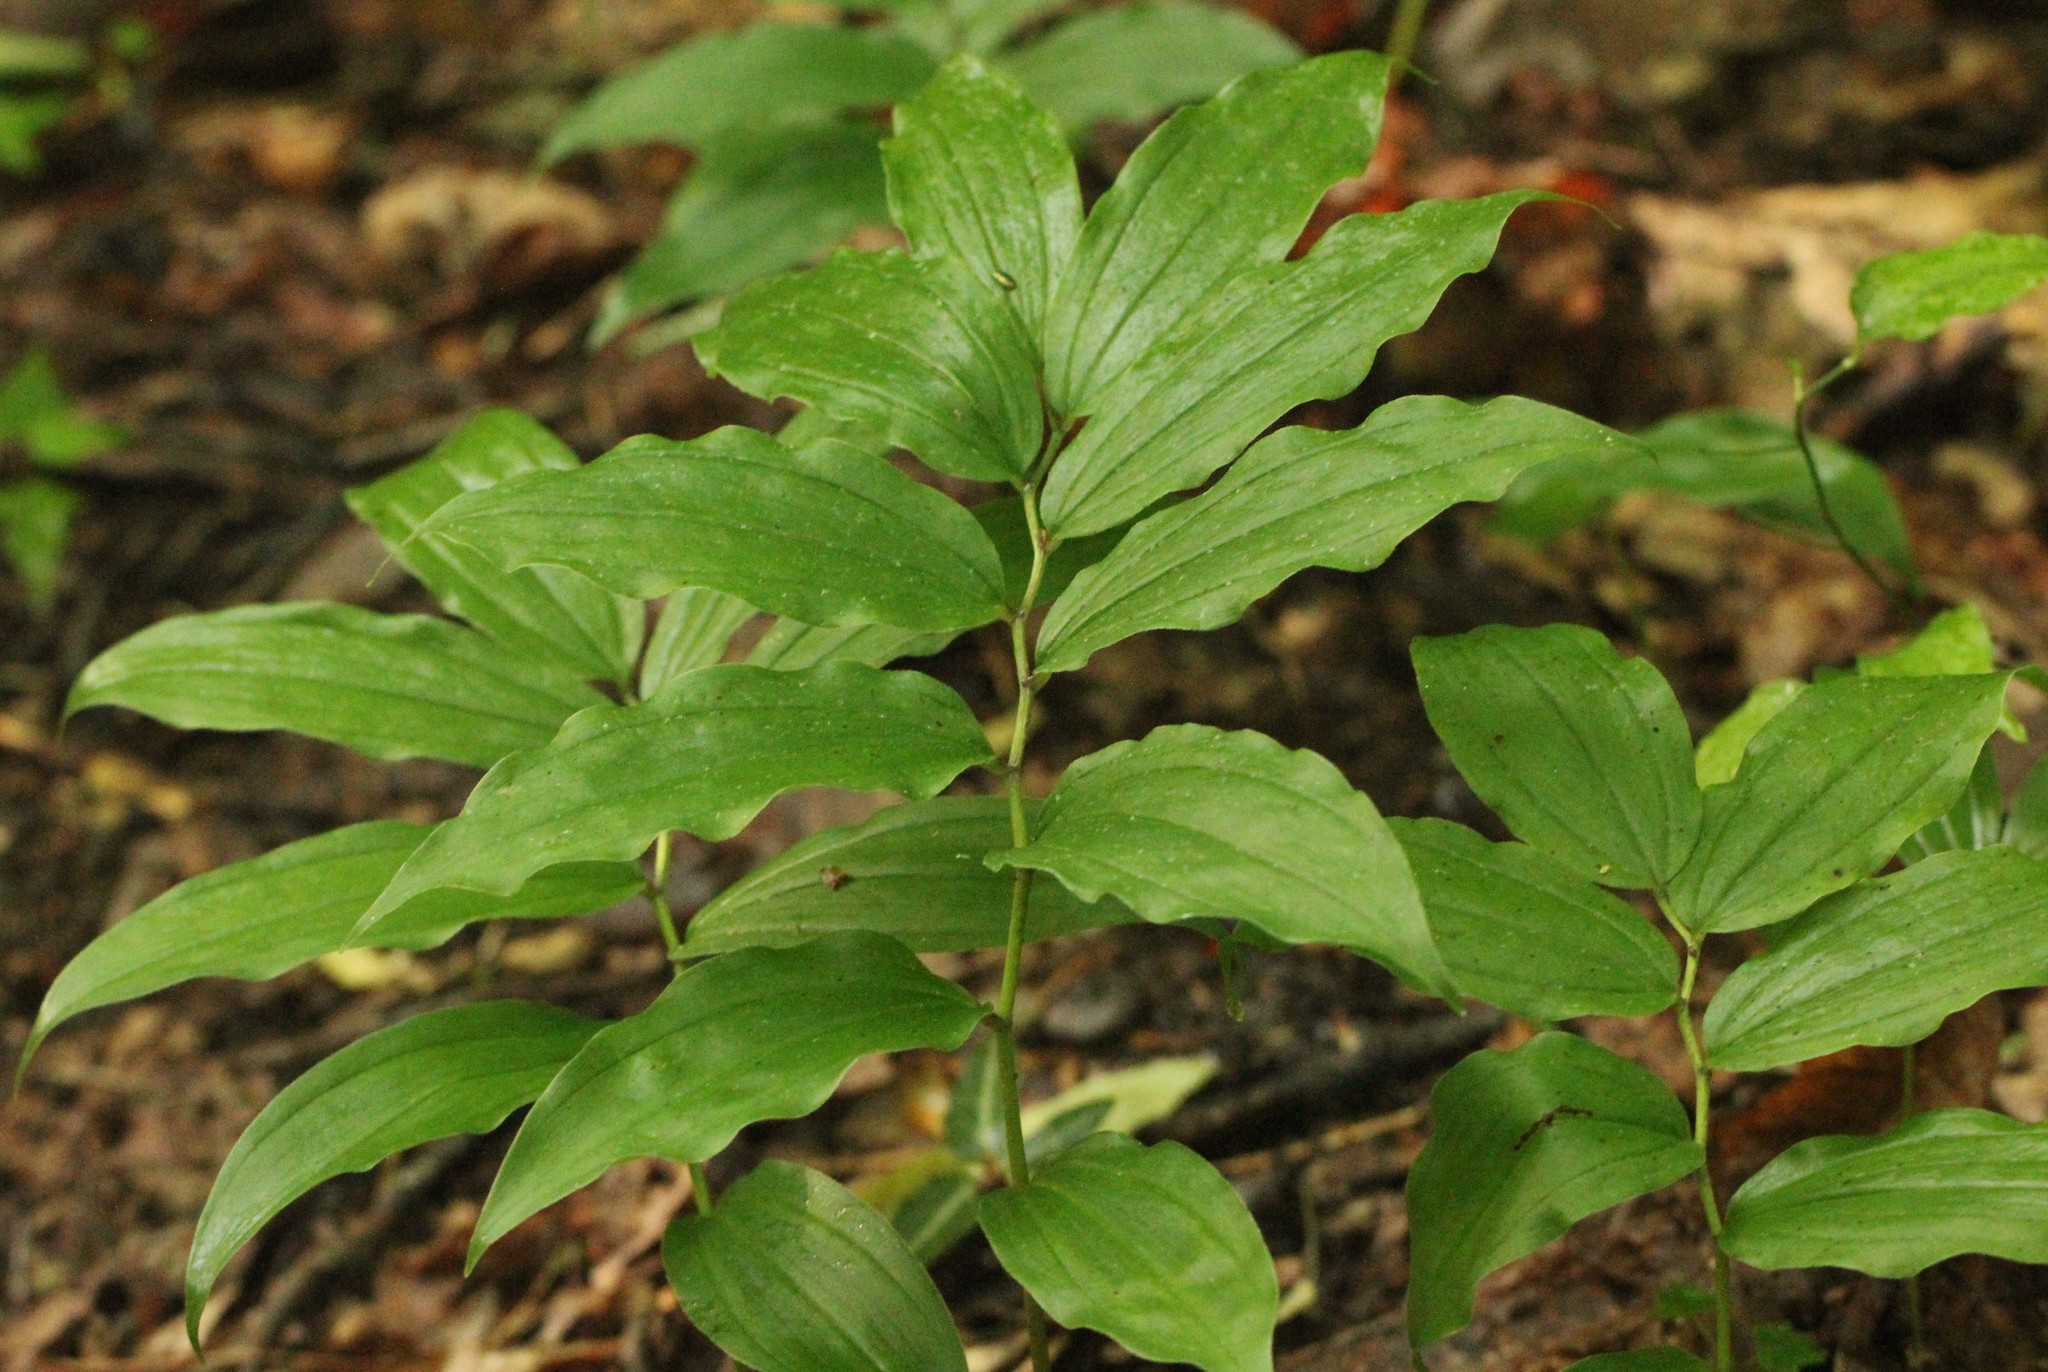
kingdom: Plantae
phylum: Tracheophyta
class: Liliopsida
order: Asparagales
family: Asparagaceae
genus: Maianthemum
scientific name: Maianthemum racemosum
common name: False spikenard
